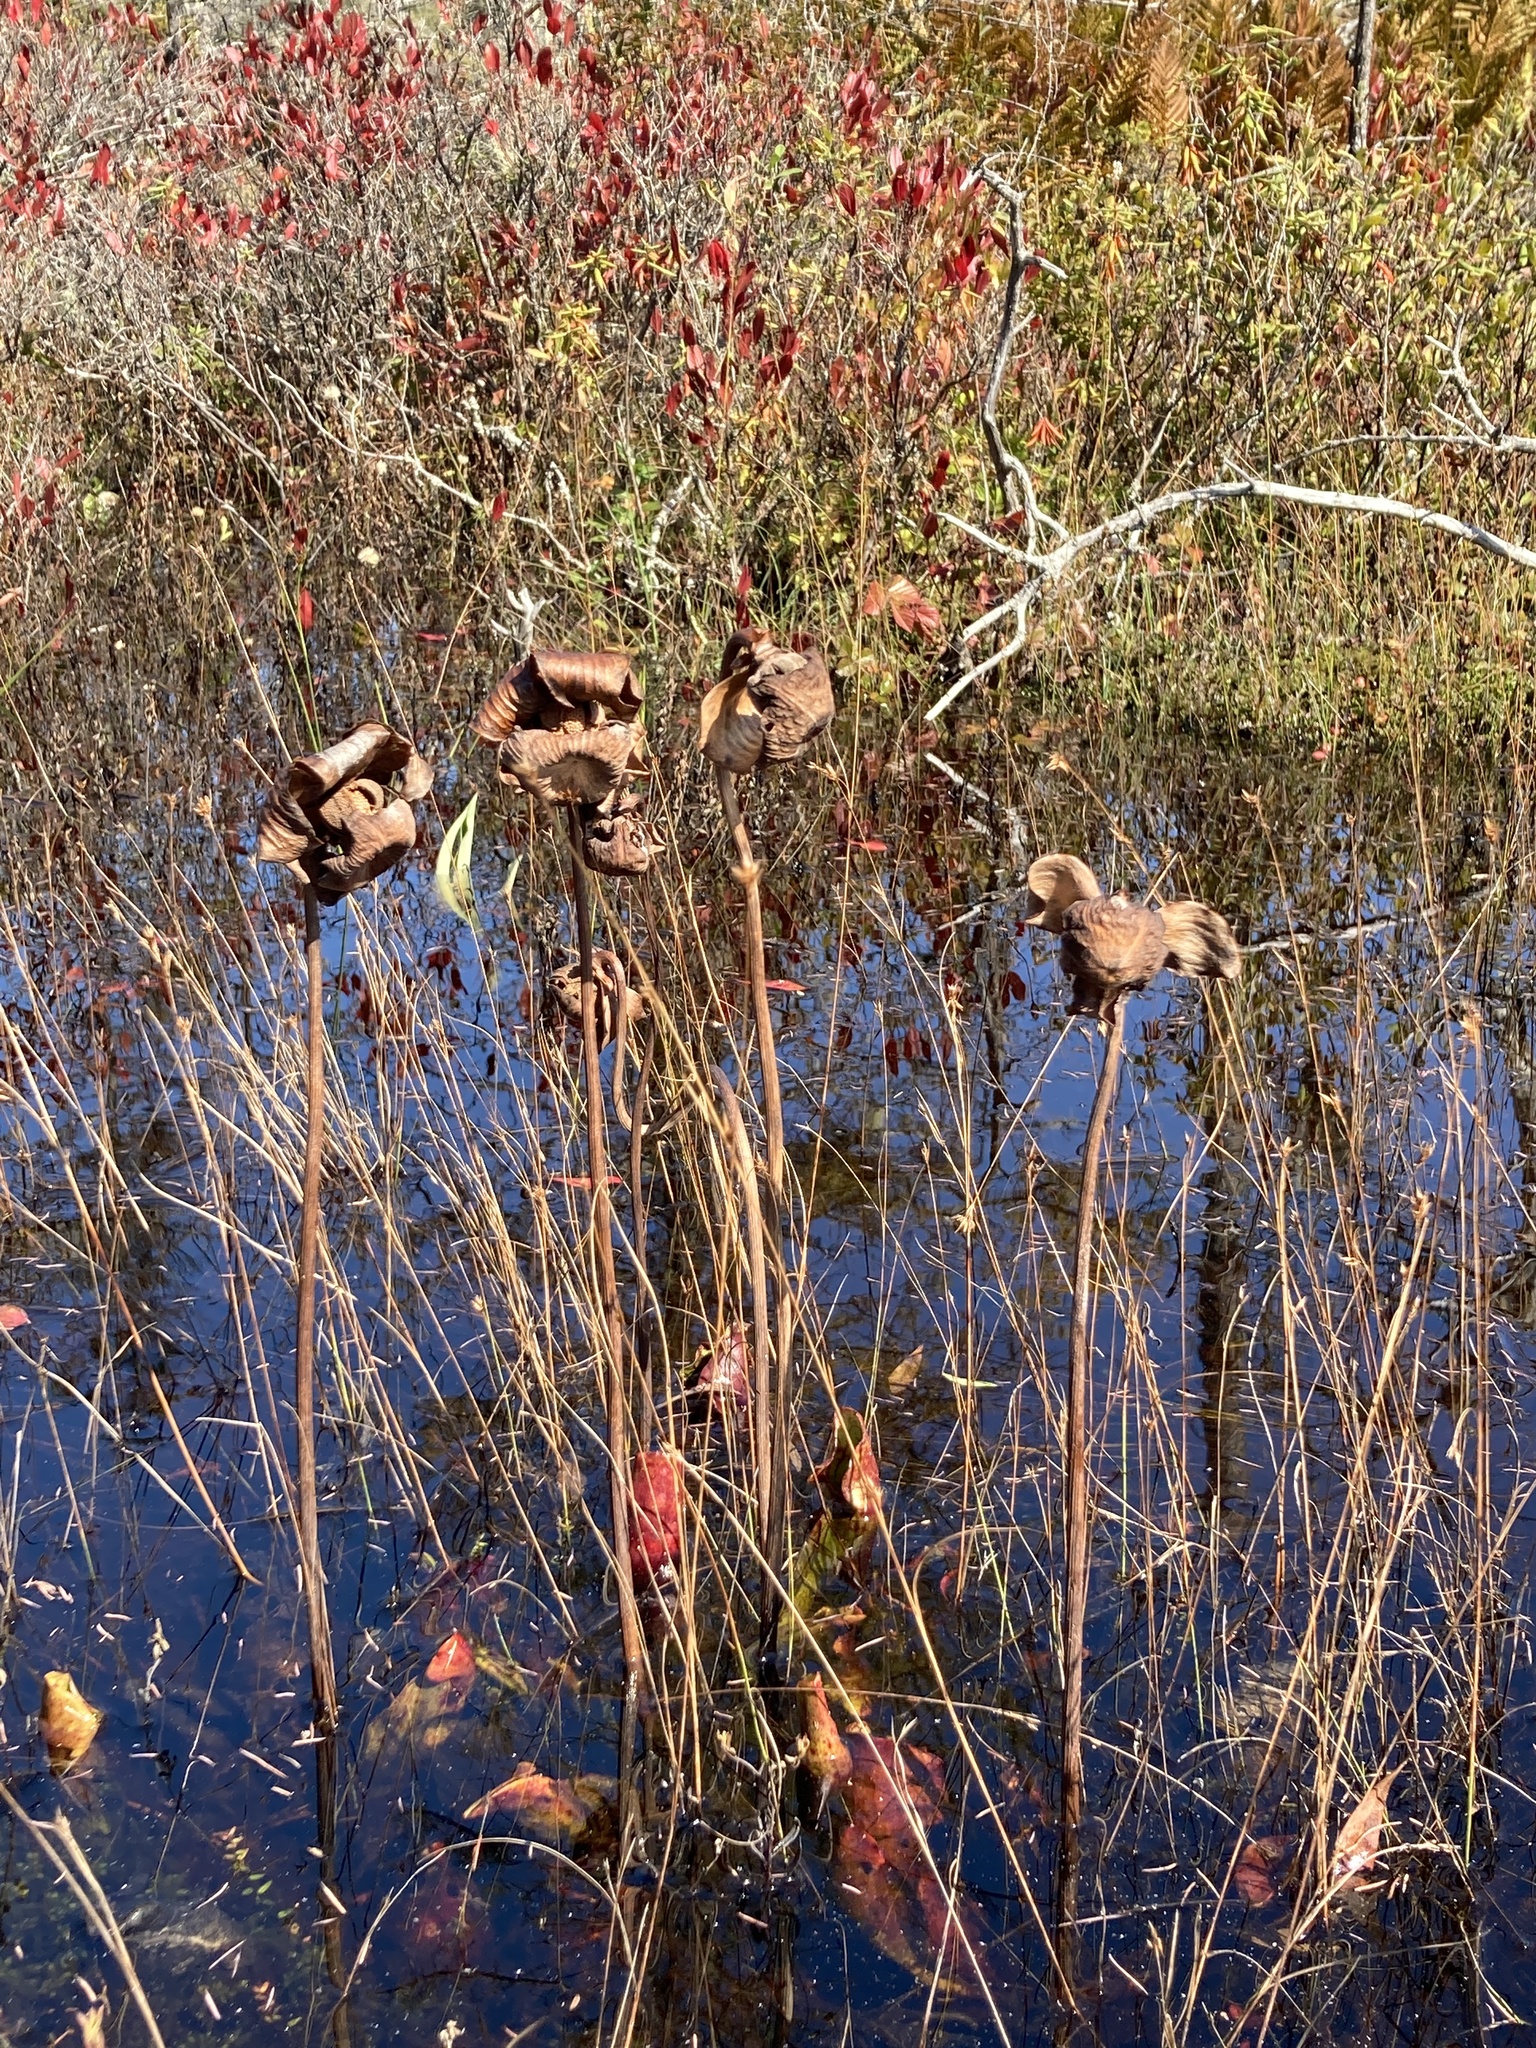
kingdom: Plantae
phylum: Tracheophyta
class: Magnoliopsida
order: Ericales
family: Sarraceniaceae
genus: Sarracenia
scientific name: Sarracenia purpurea
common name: Pitcherplant
